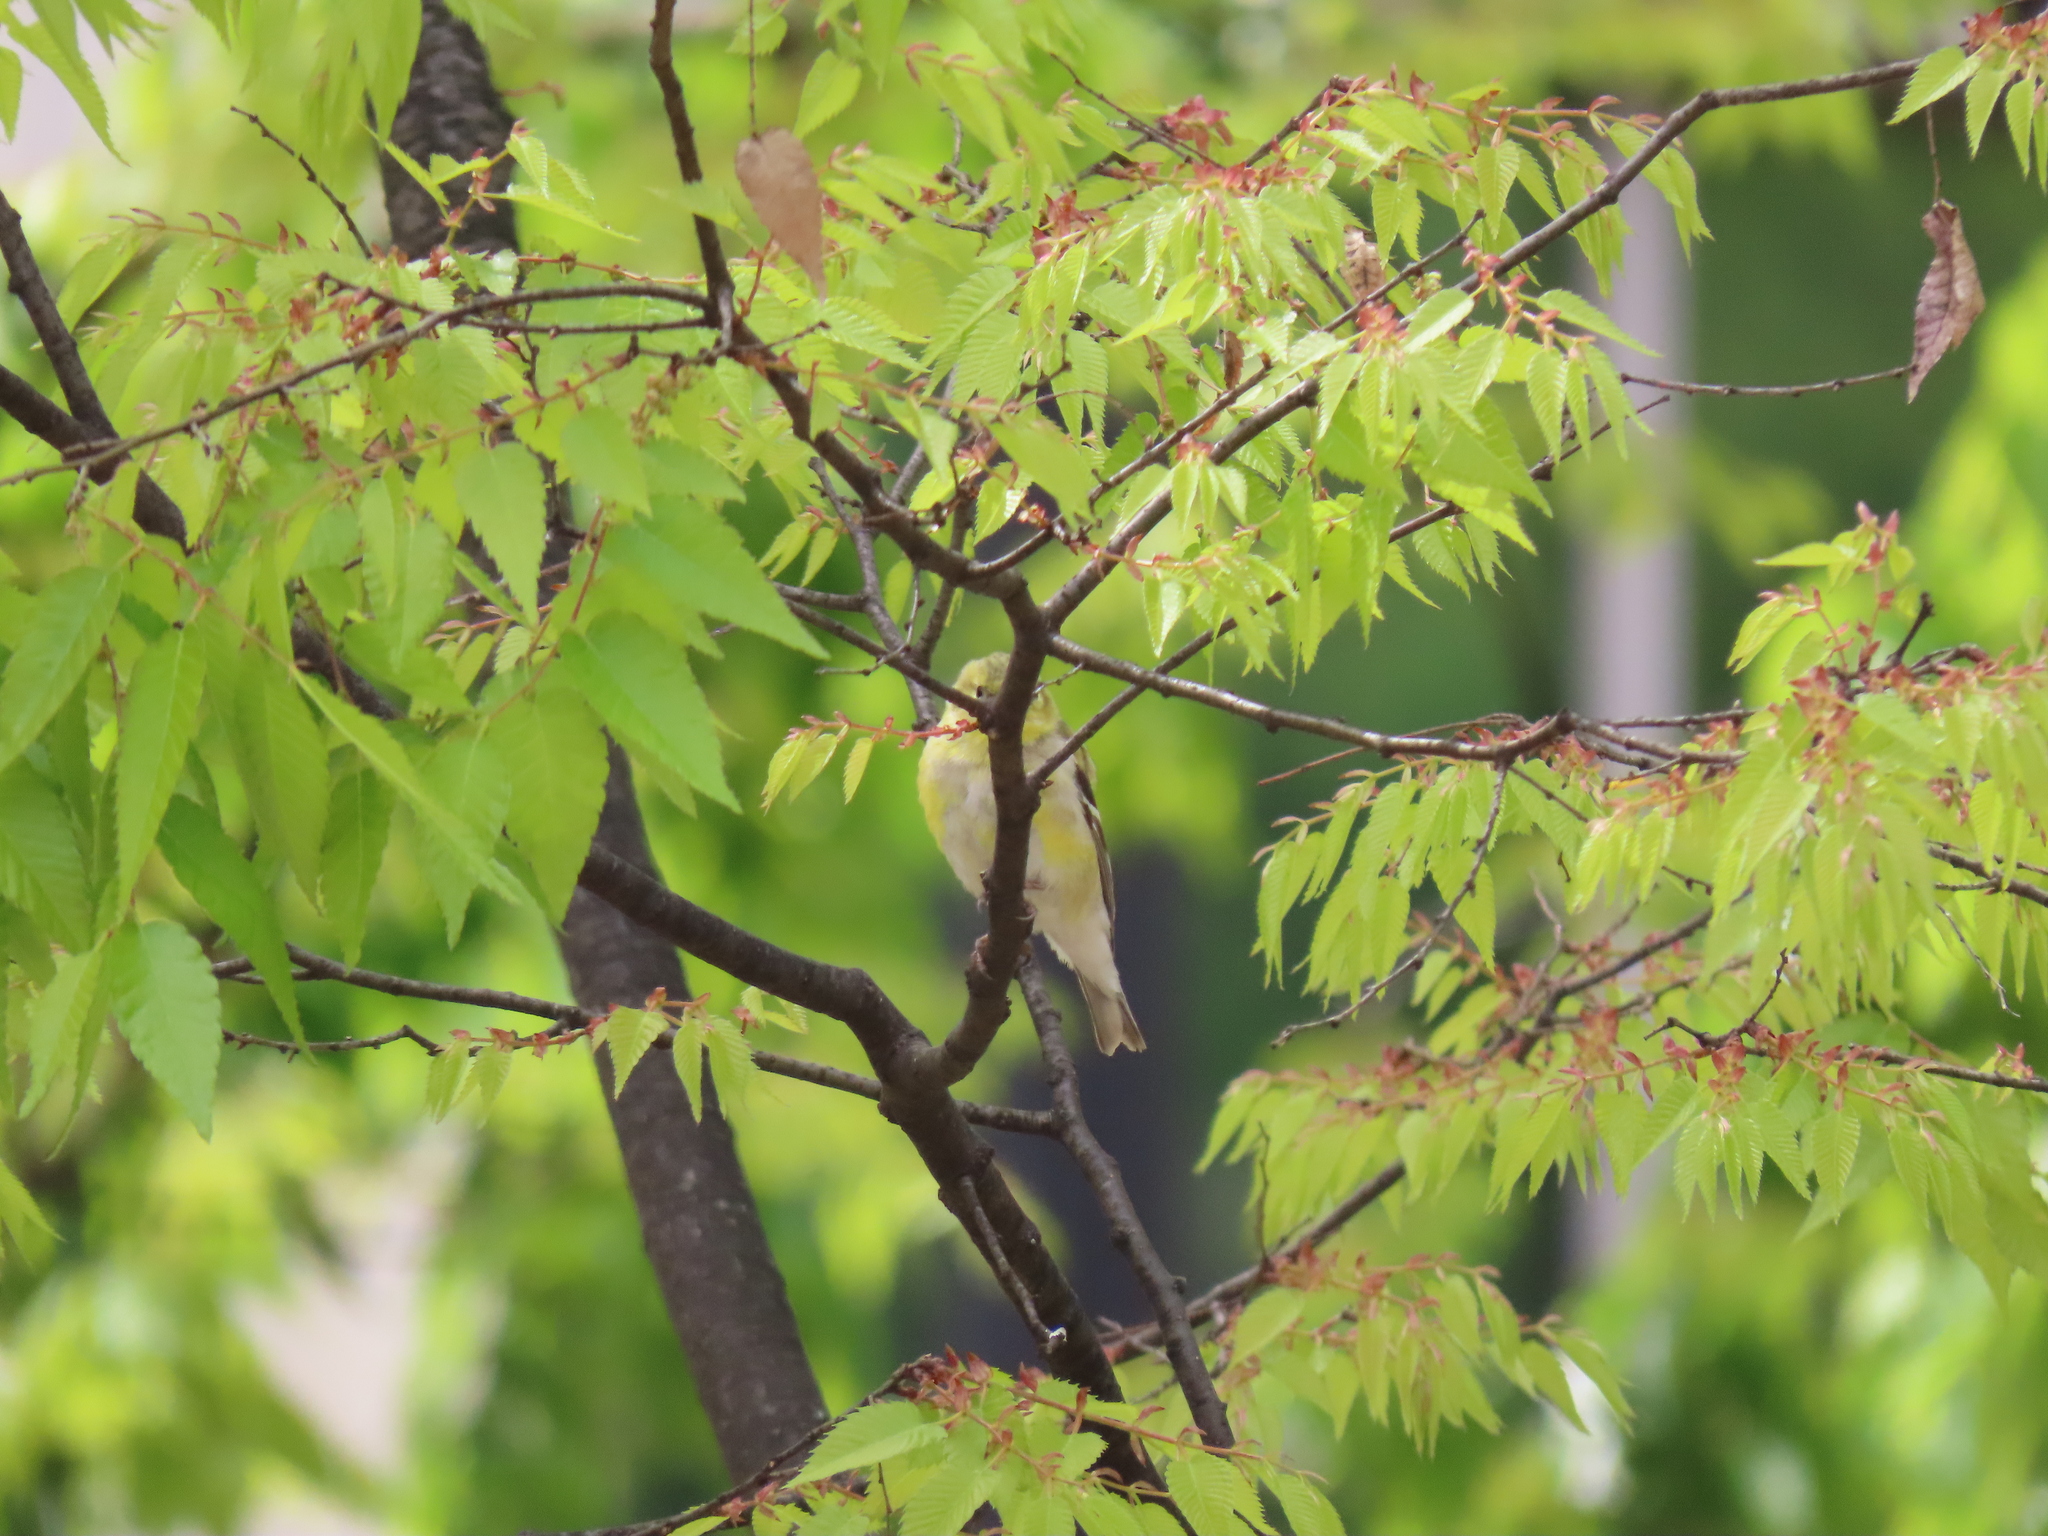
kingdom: Animalia
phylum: Chordata
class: Aves
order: Passeriformes
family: Fringillidae
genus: Spinus
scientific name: Spinus tristis
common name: American goldfinch
